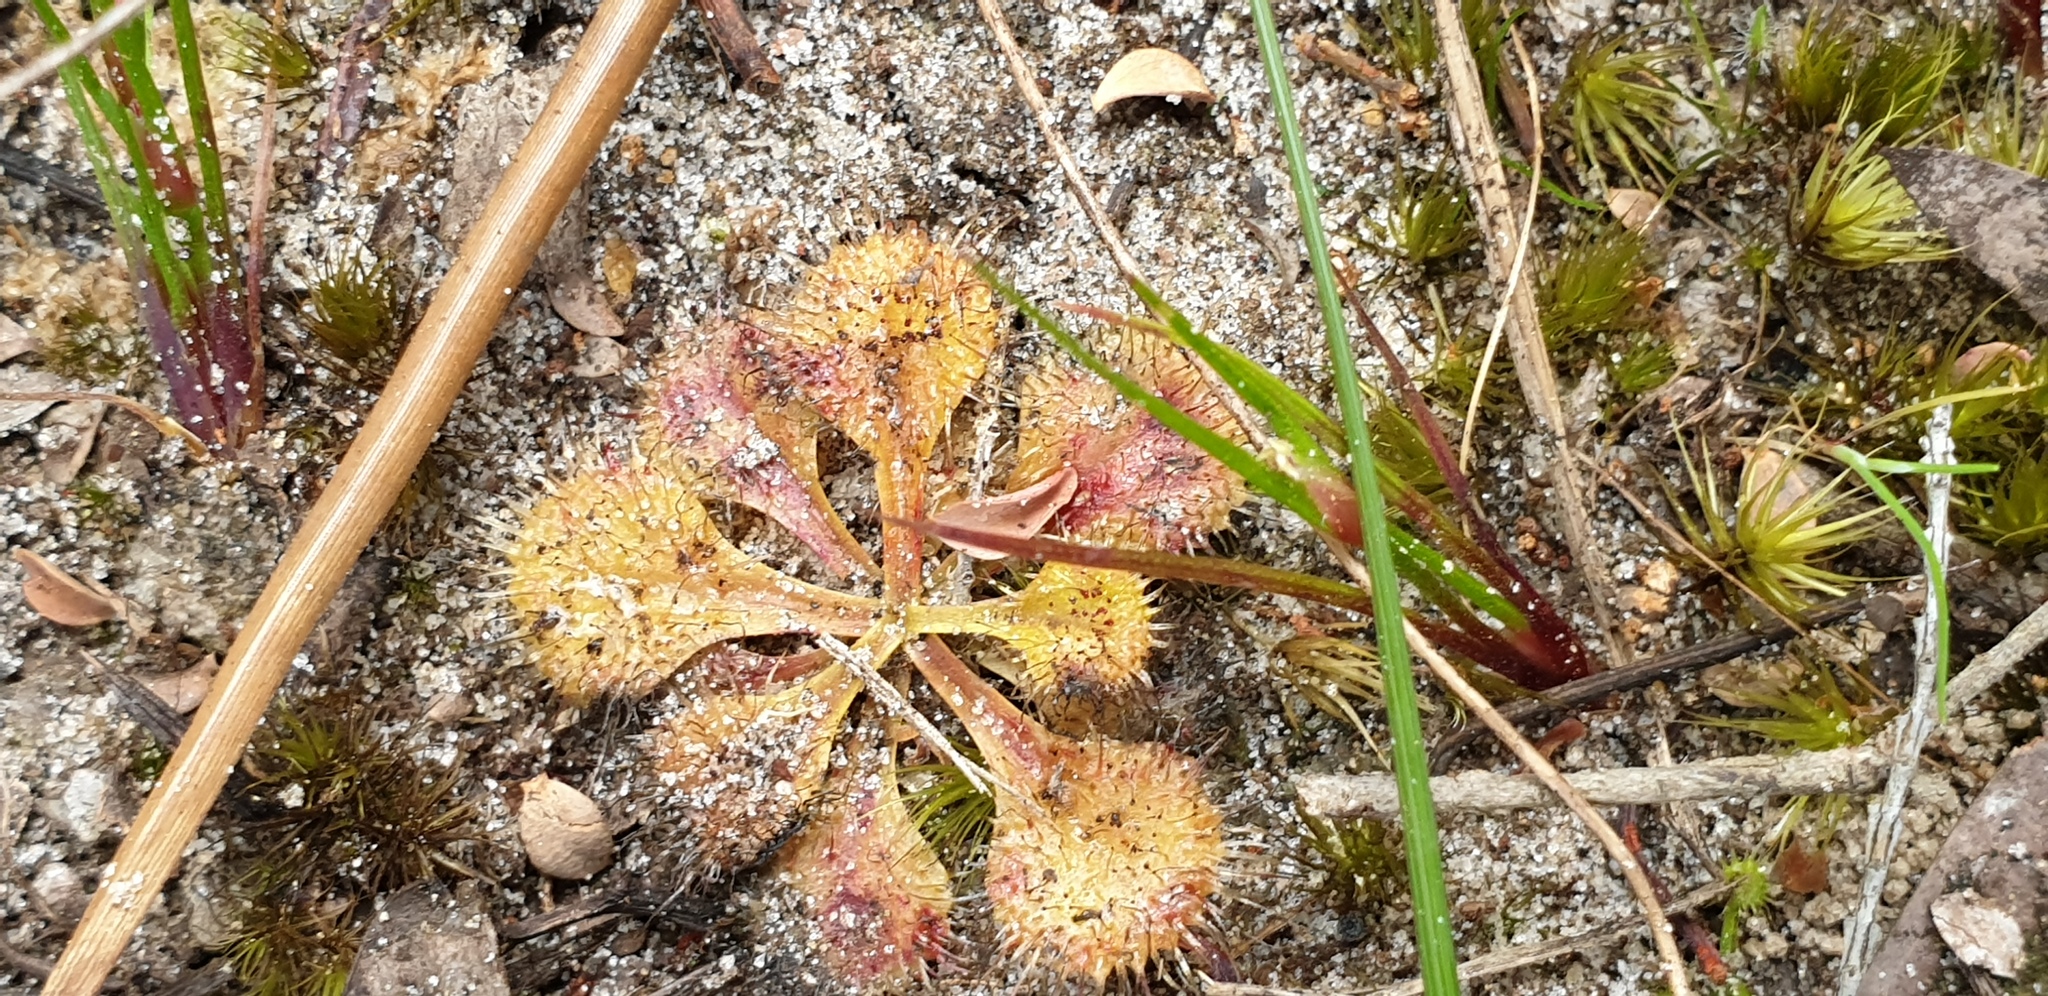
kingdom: Plantae
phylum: Tracheophyta
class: Magnoliopsida
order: Caryophyllales
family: Droseraceae
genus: Drosera
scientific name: Drosera schmutzii
